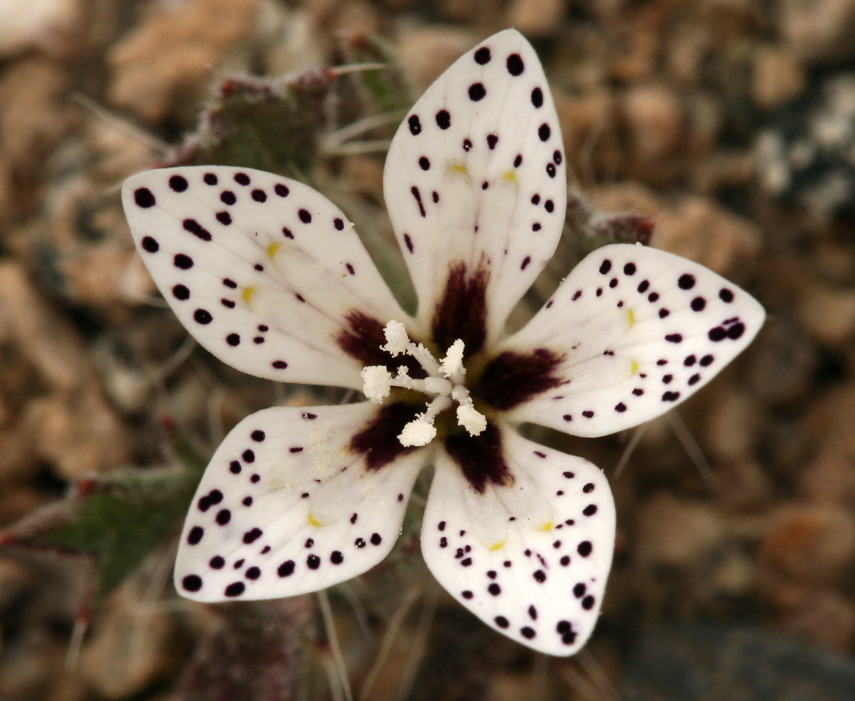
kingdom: Plantae
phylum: Tracheophyta
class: Magnoliopsida
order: Ericales
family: Polemoniaceae
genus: Langloisia
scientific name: Langloisia setosissima
